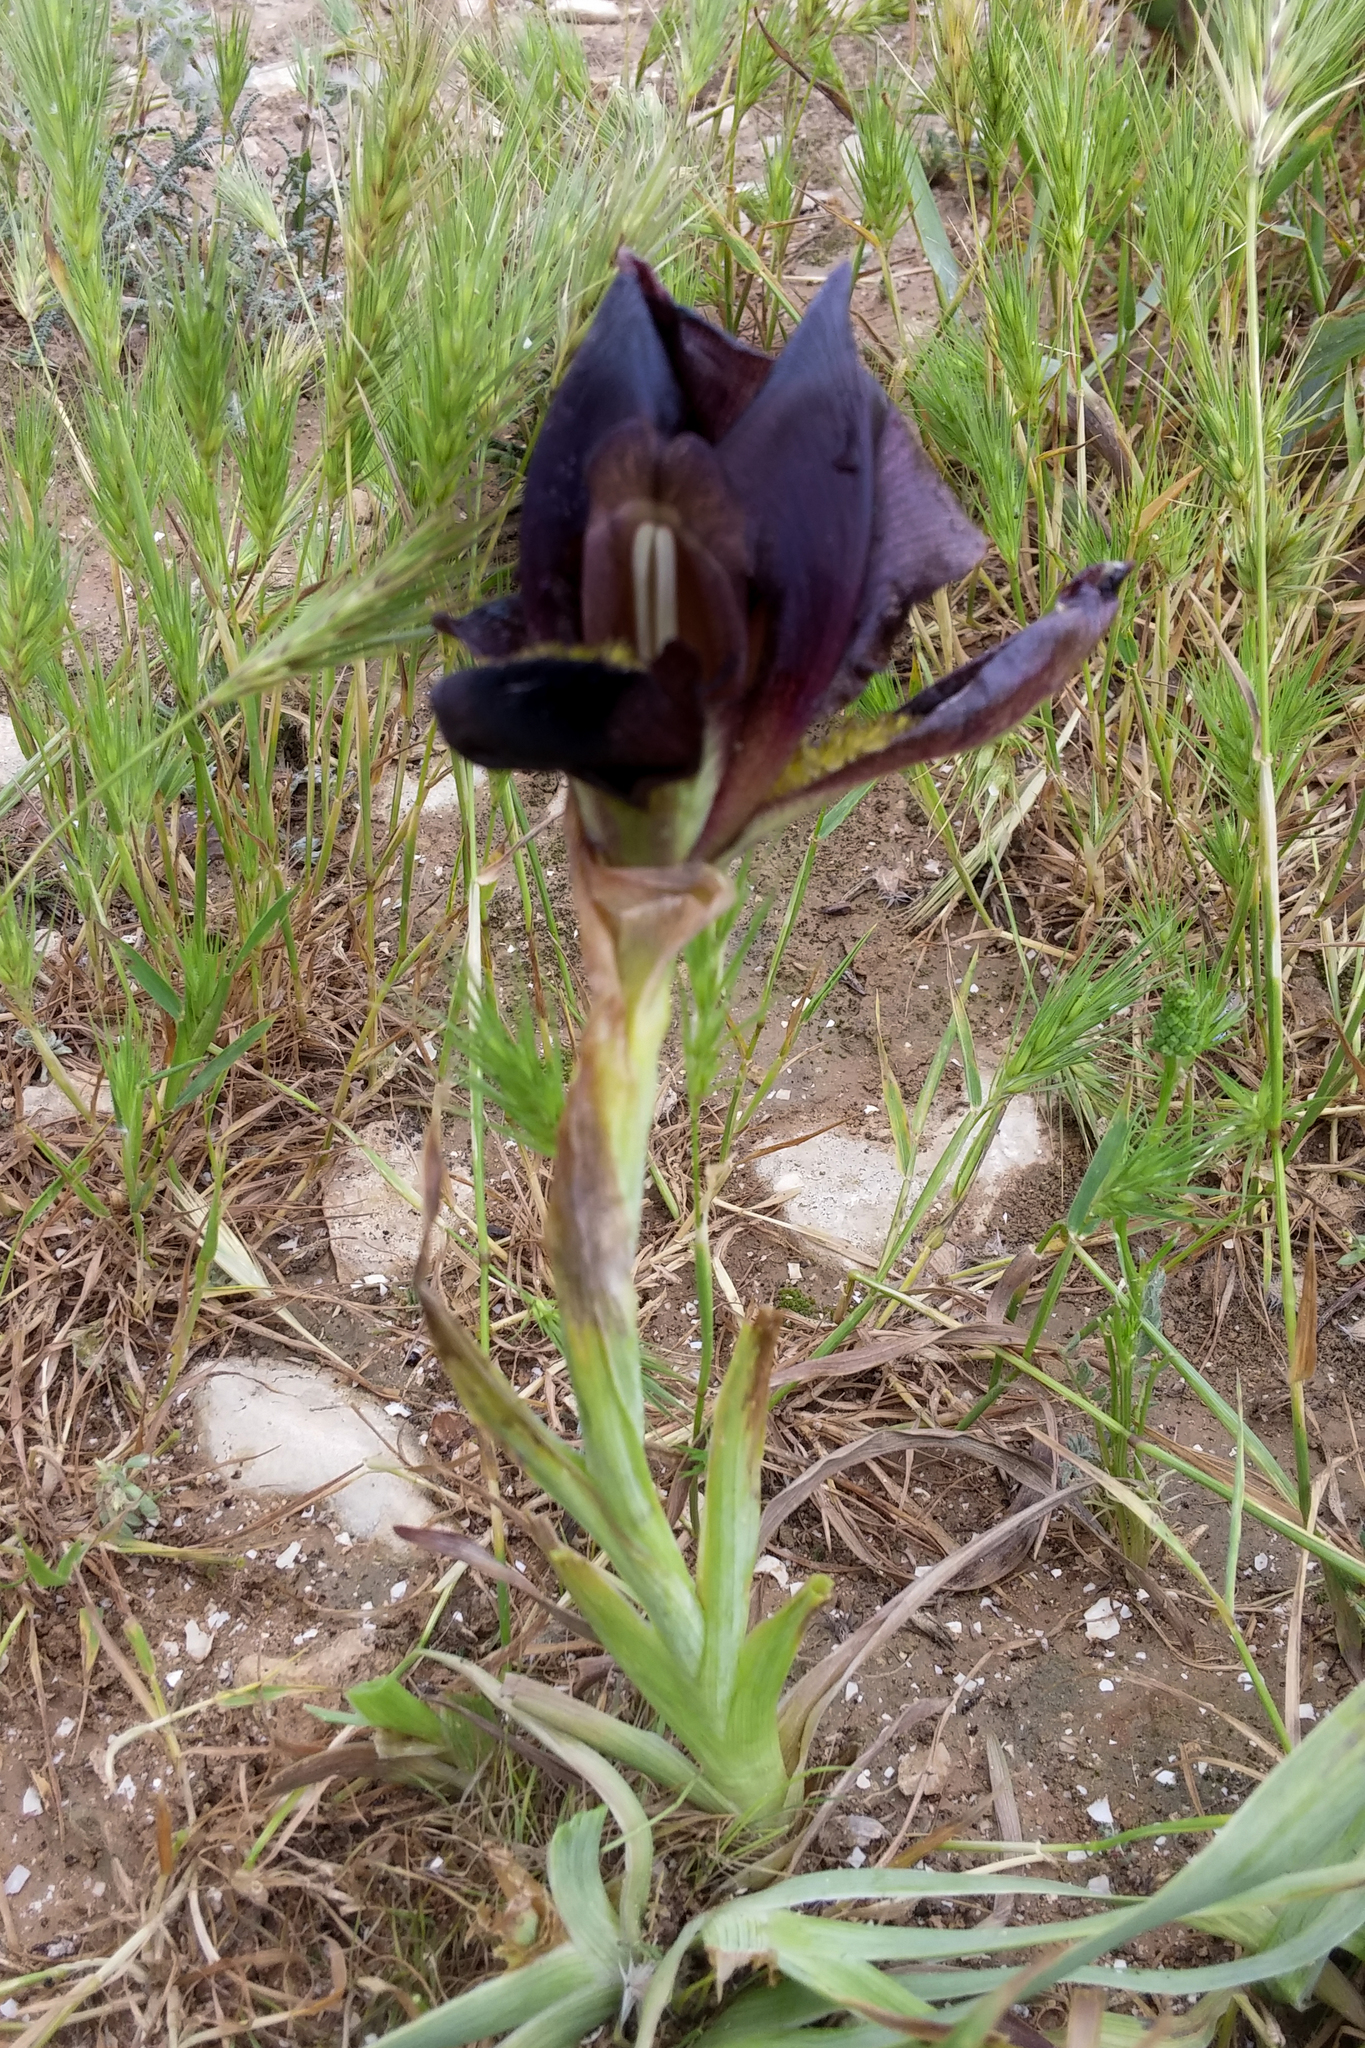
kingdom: Plantae
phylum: Tracheophyta
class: Liliopsida
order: Asparagales
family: Iridaceae
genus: Iris
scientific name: Iris atrofusca
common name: Asshafa iris
